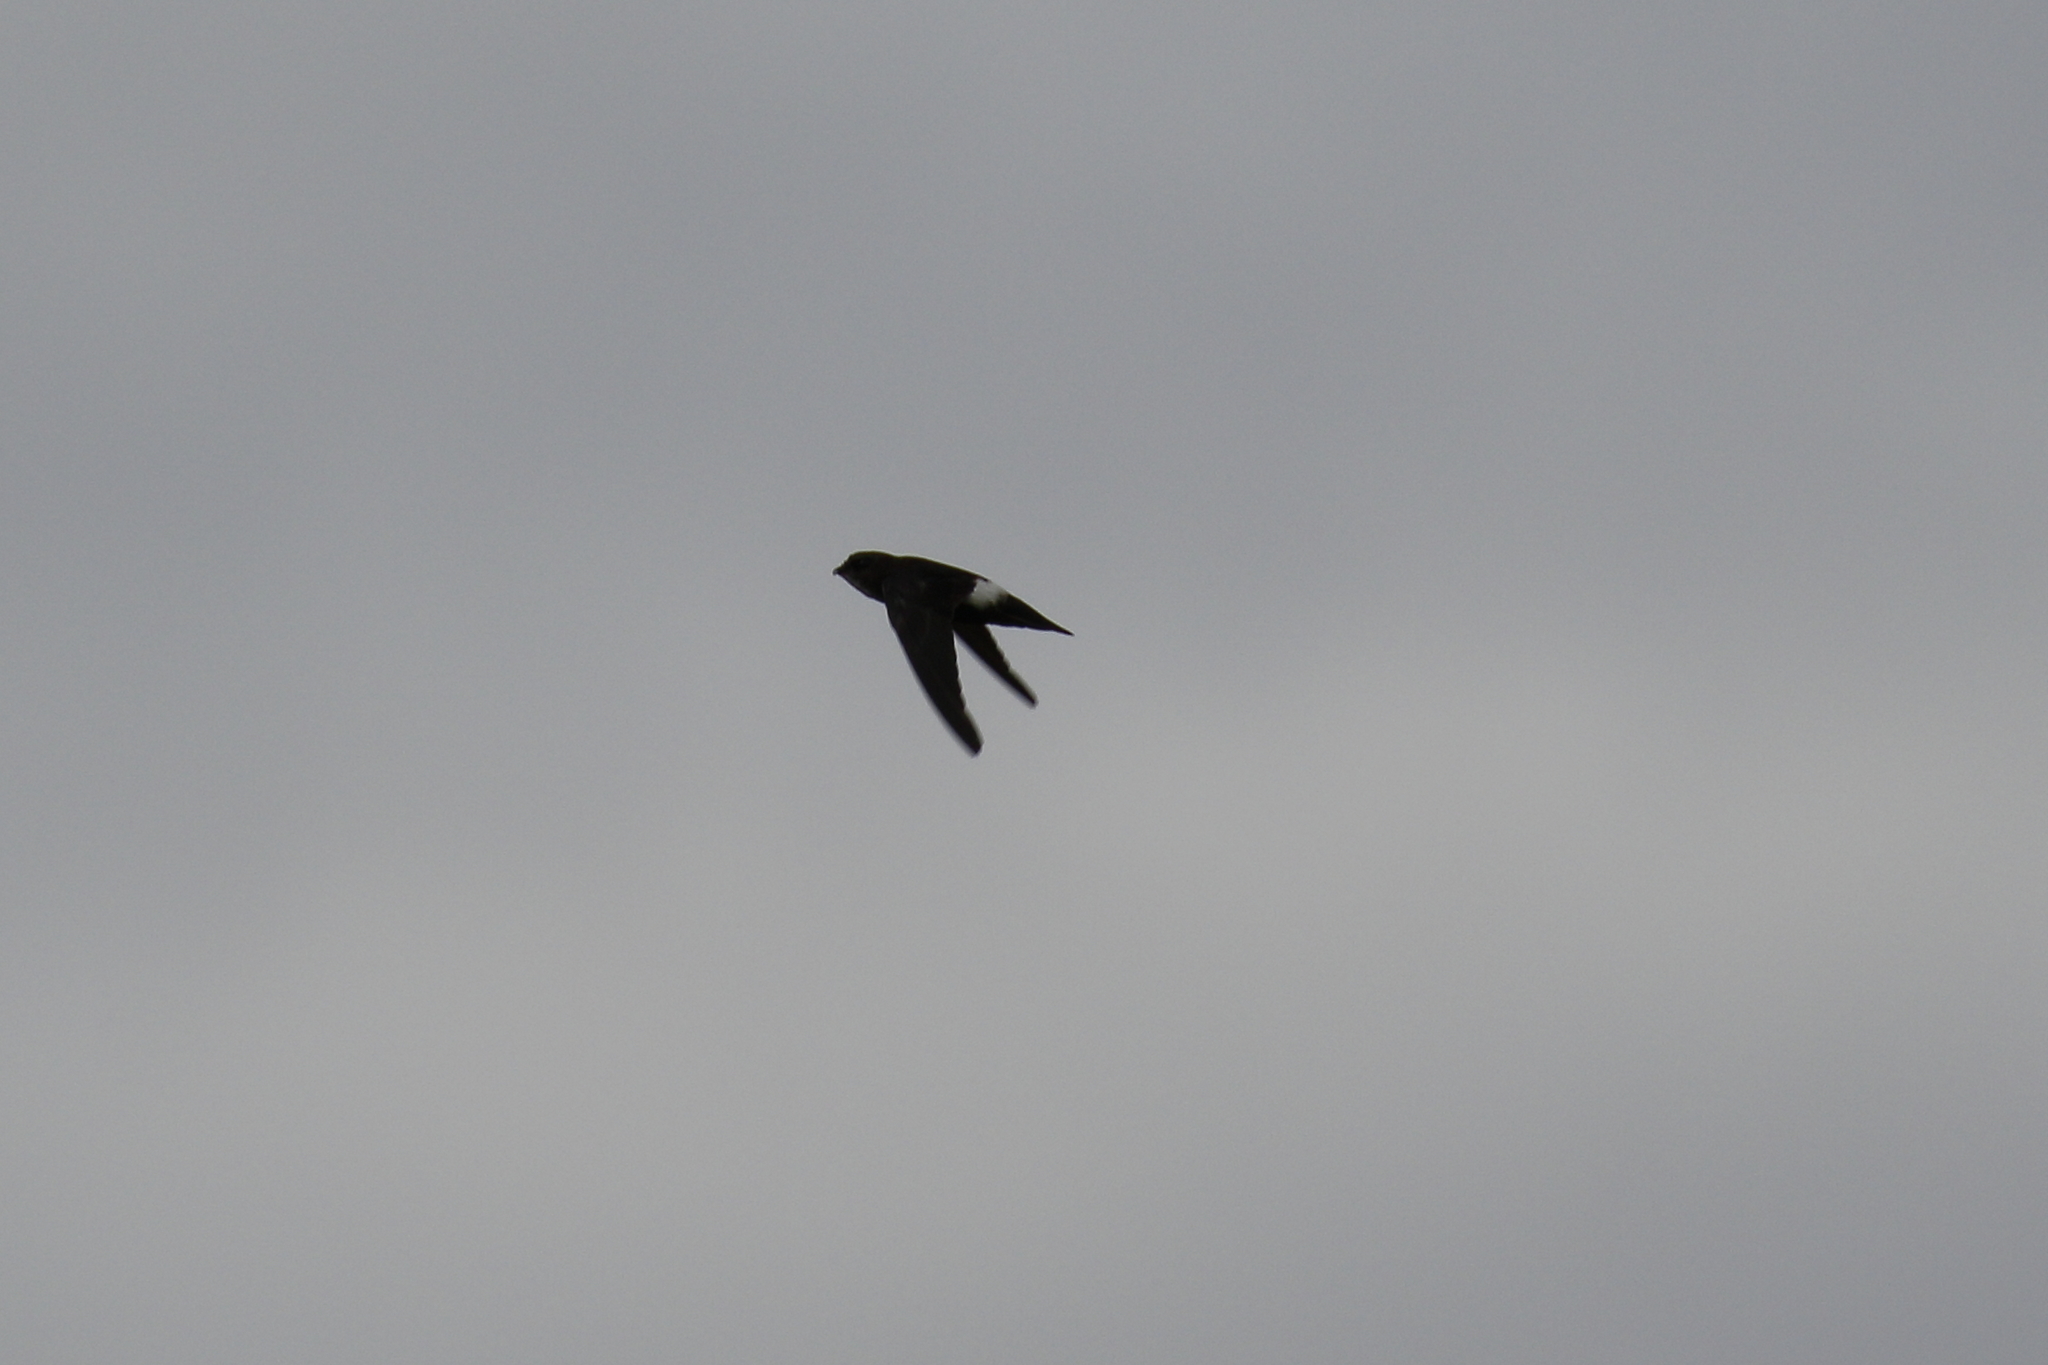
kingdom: Animalia
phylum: Chordata
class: Aves
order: Apodiformes
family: Apodidae
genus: Apus
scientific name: Apus nipalensis
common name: House swift
